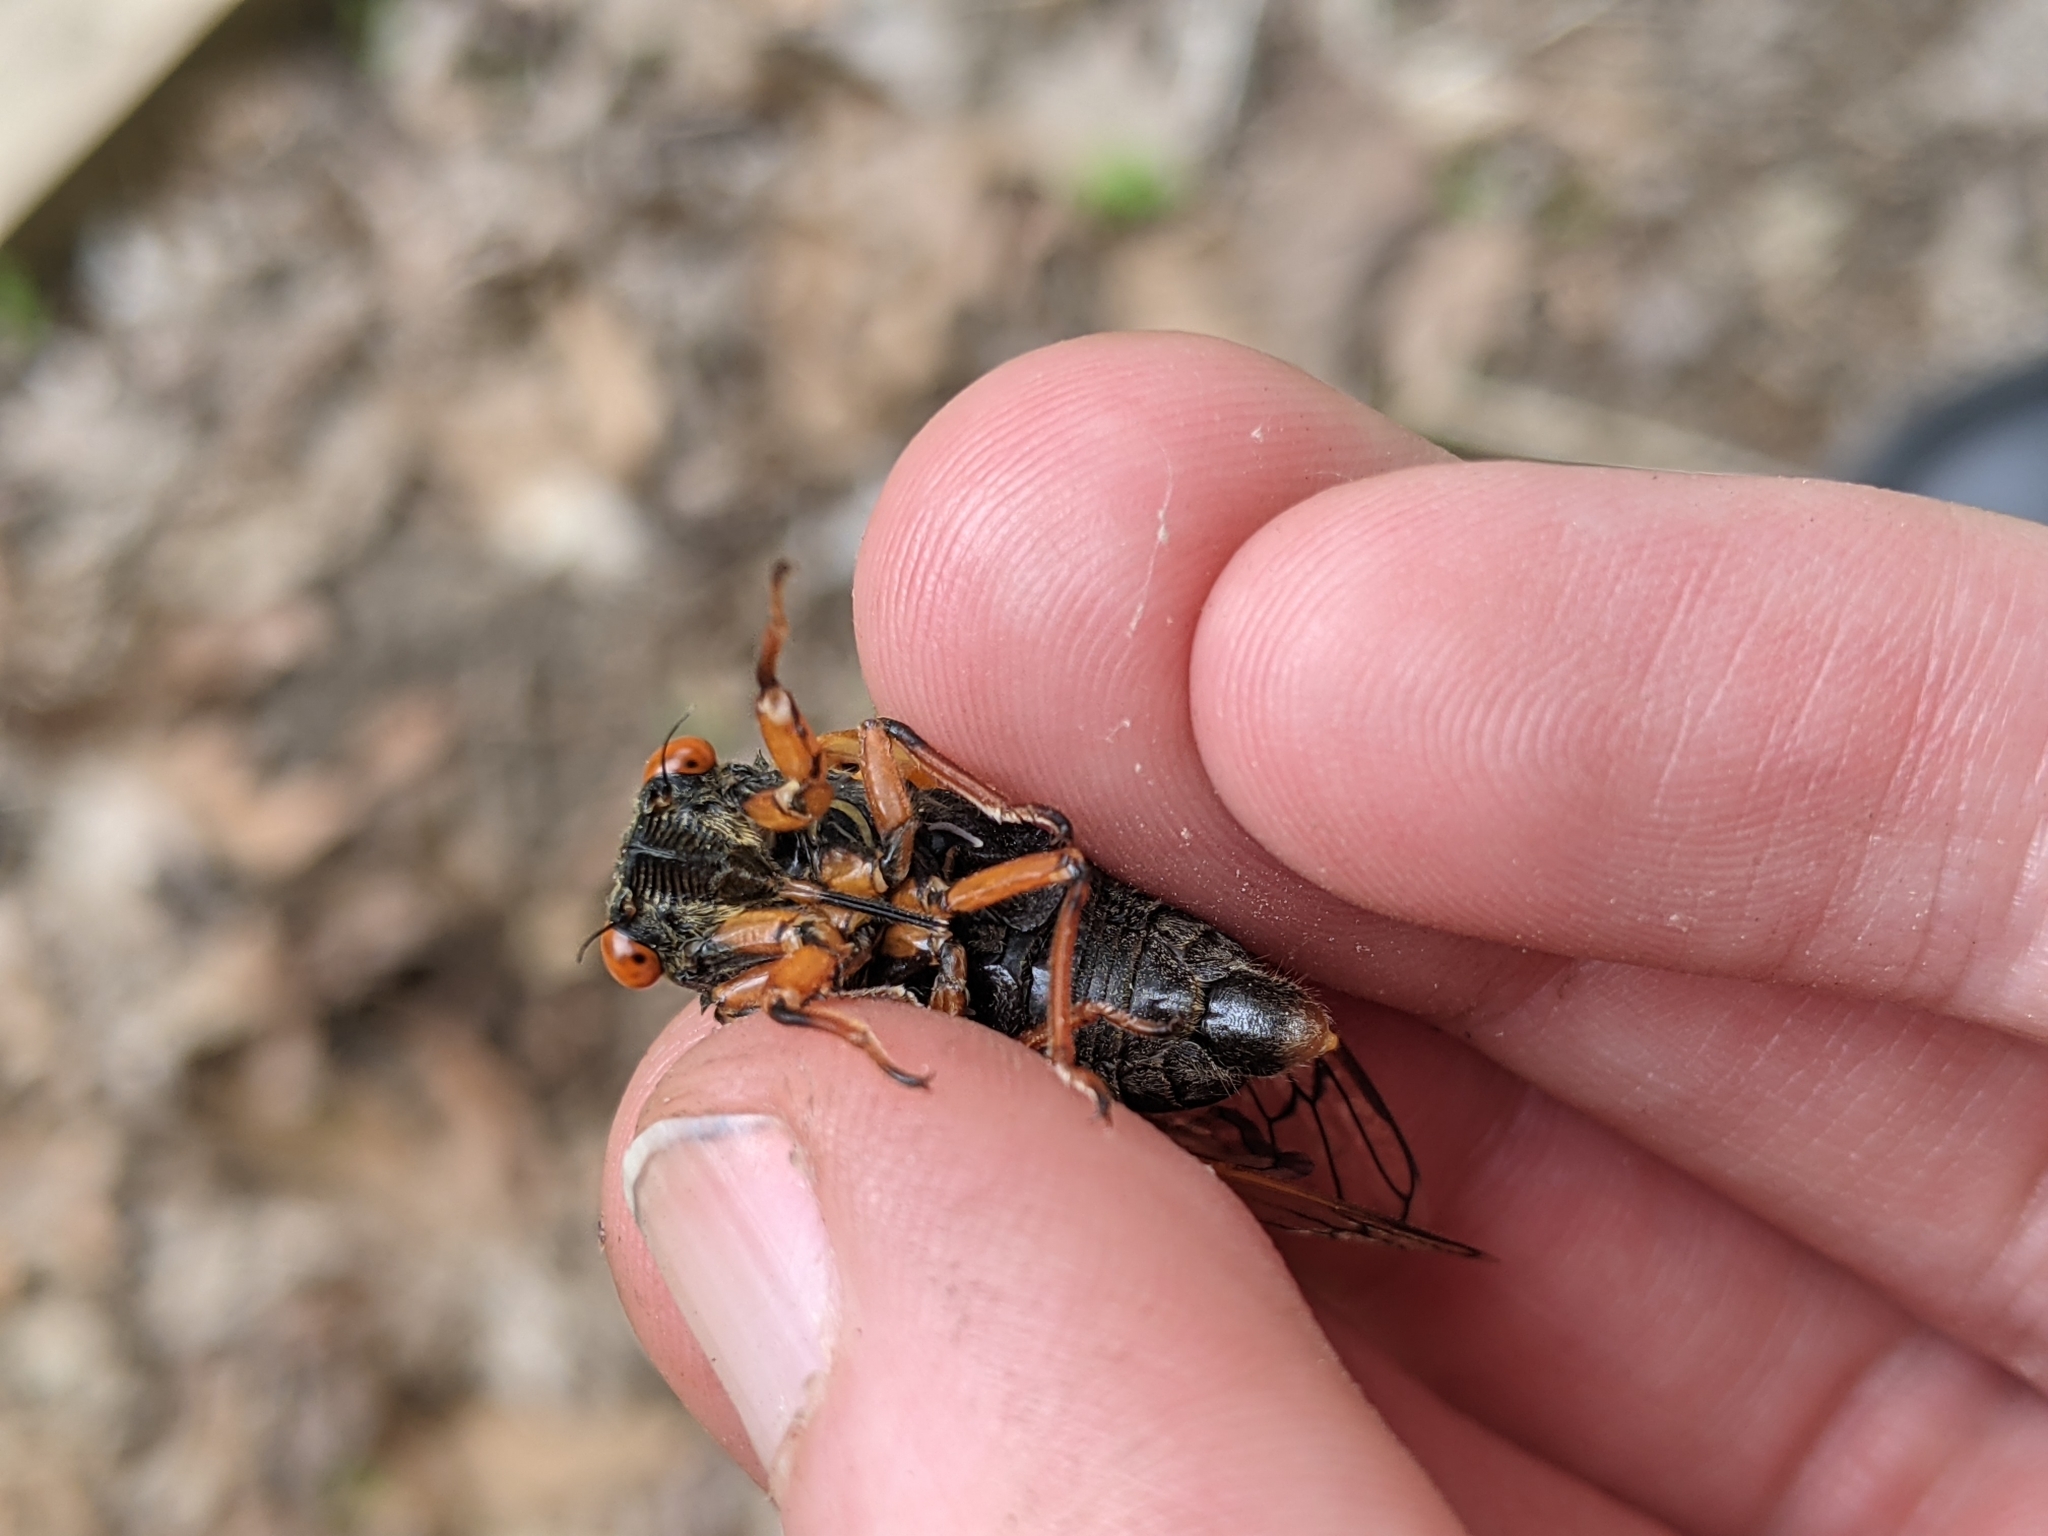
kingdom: Animalia
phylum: Arthropoda
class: Insecta
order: Hemiptera
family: Cicadidae
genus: Magicicada
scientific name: Magicicada cassini
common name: Cassin's 17-year cicada
